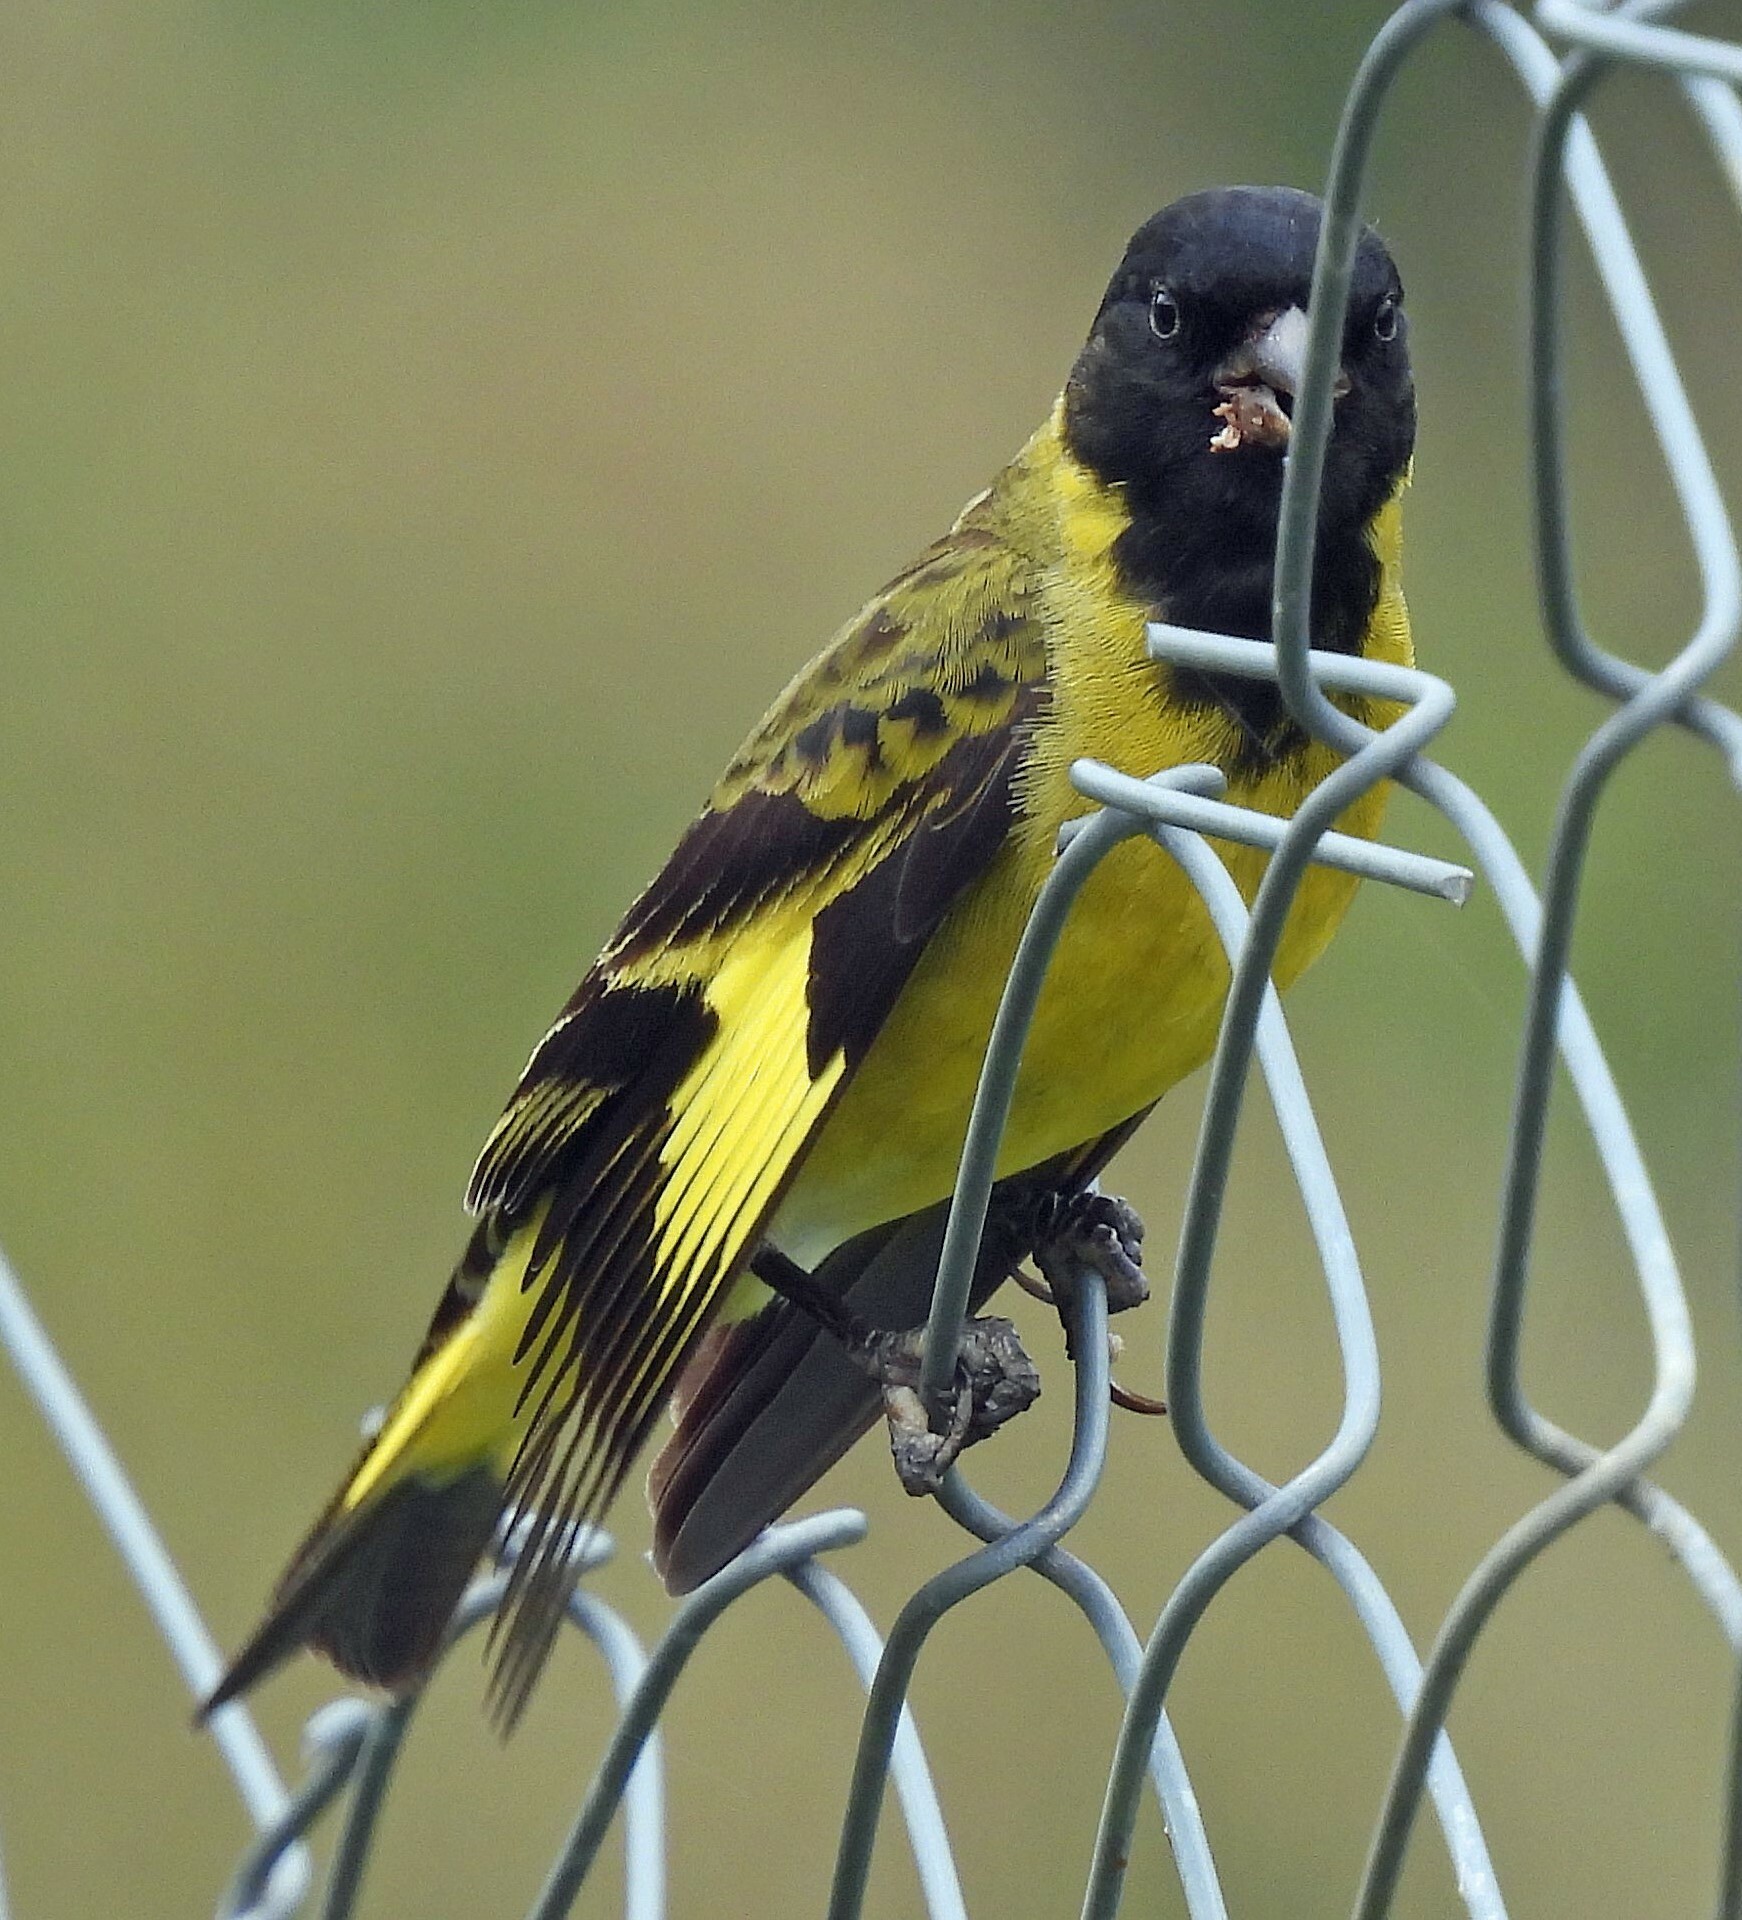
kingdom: Animalia
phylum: Chordata
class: Aves
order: Passeriformes
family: Fringillidae
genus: Spinus
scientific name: Spinus magellanicus
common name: Hooded siskin
